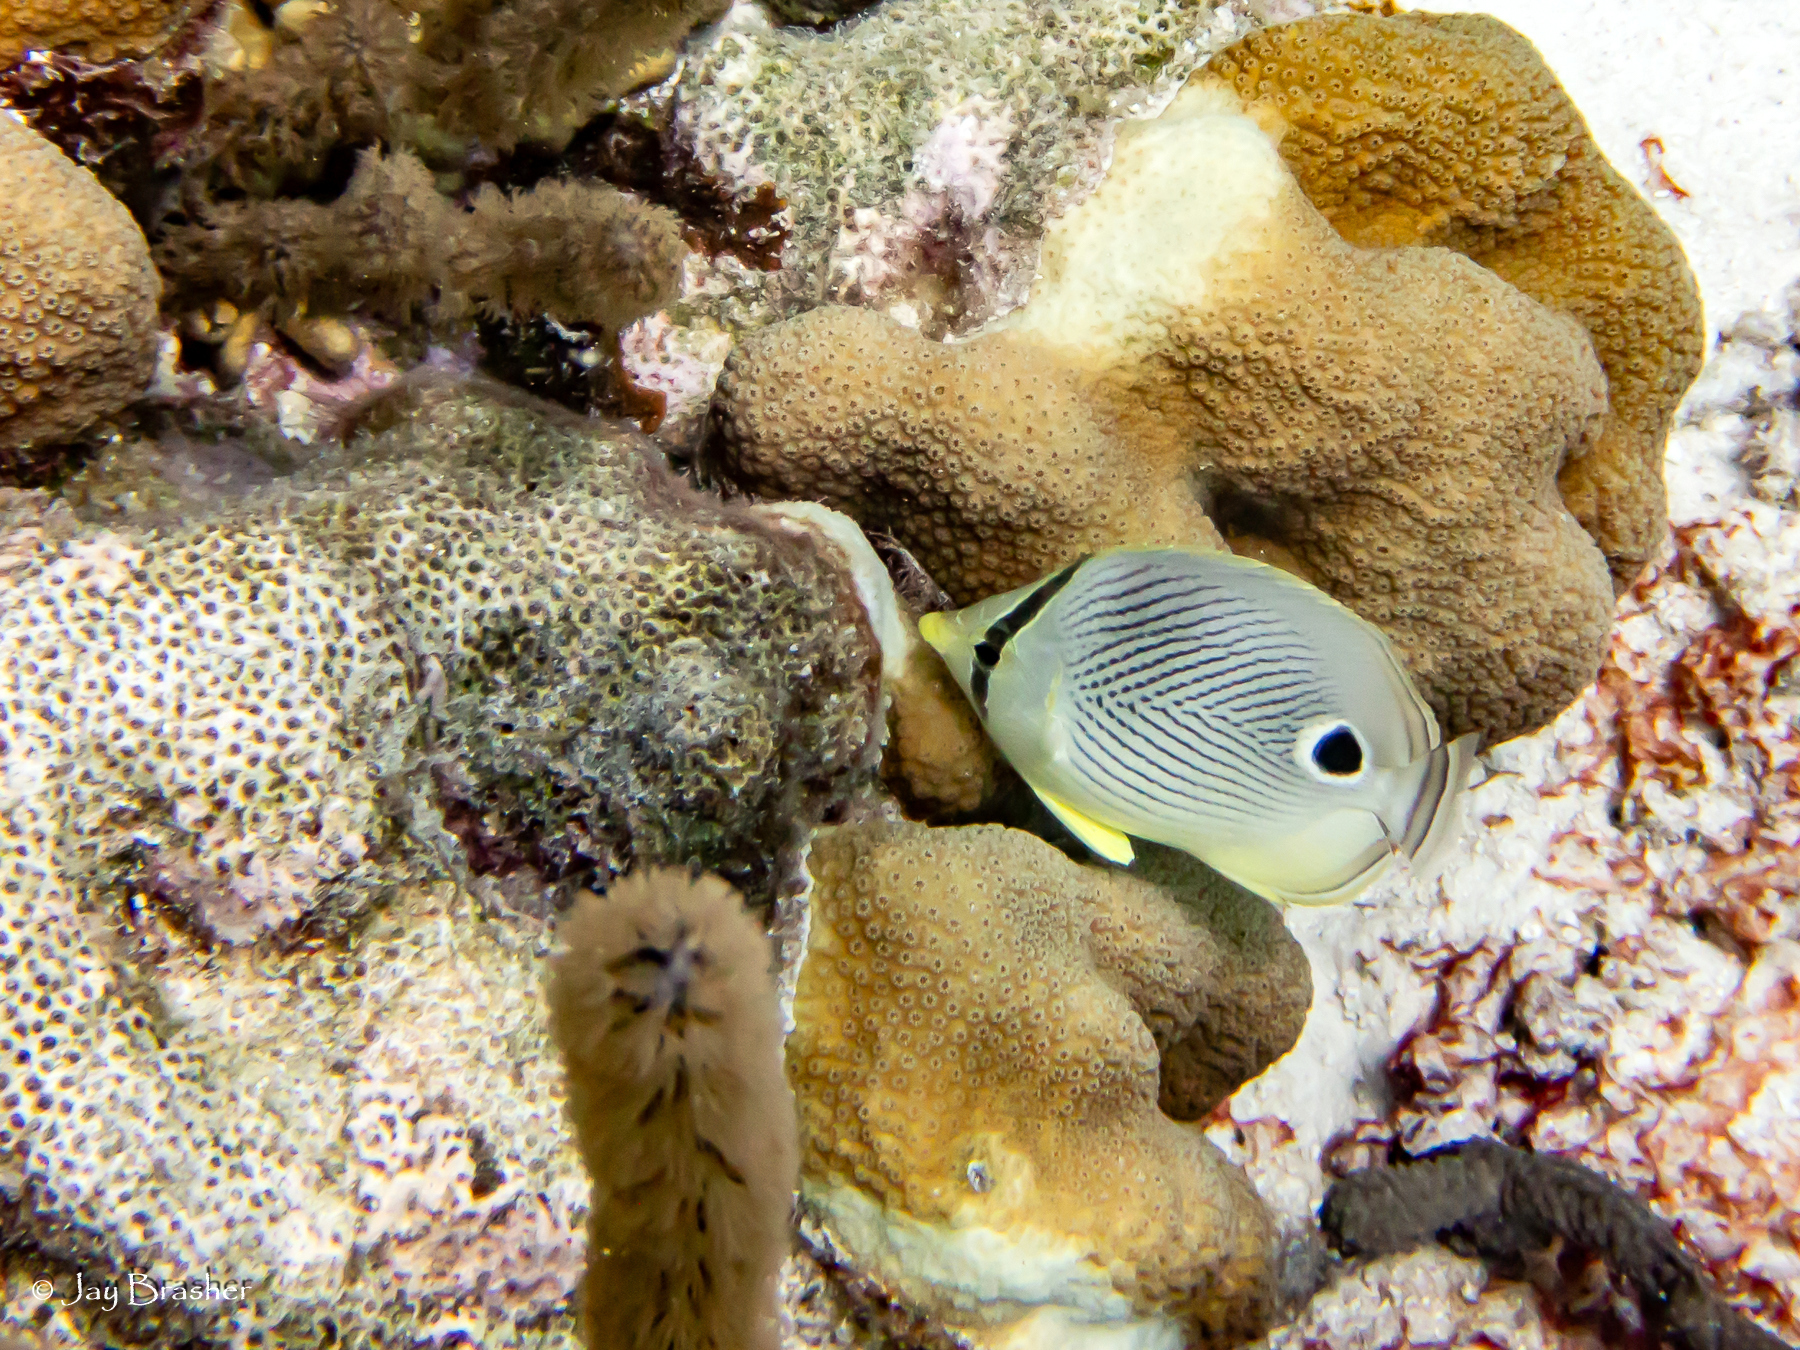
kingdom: Animalia
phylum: Chordata
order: Perciformes
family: Chaetodontidae
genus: Chaetodon
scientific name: Chaetodon capistratus
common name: Kete
